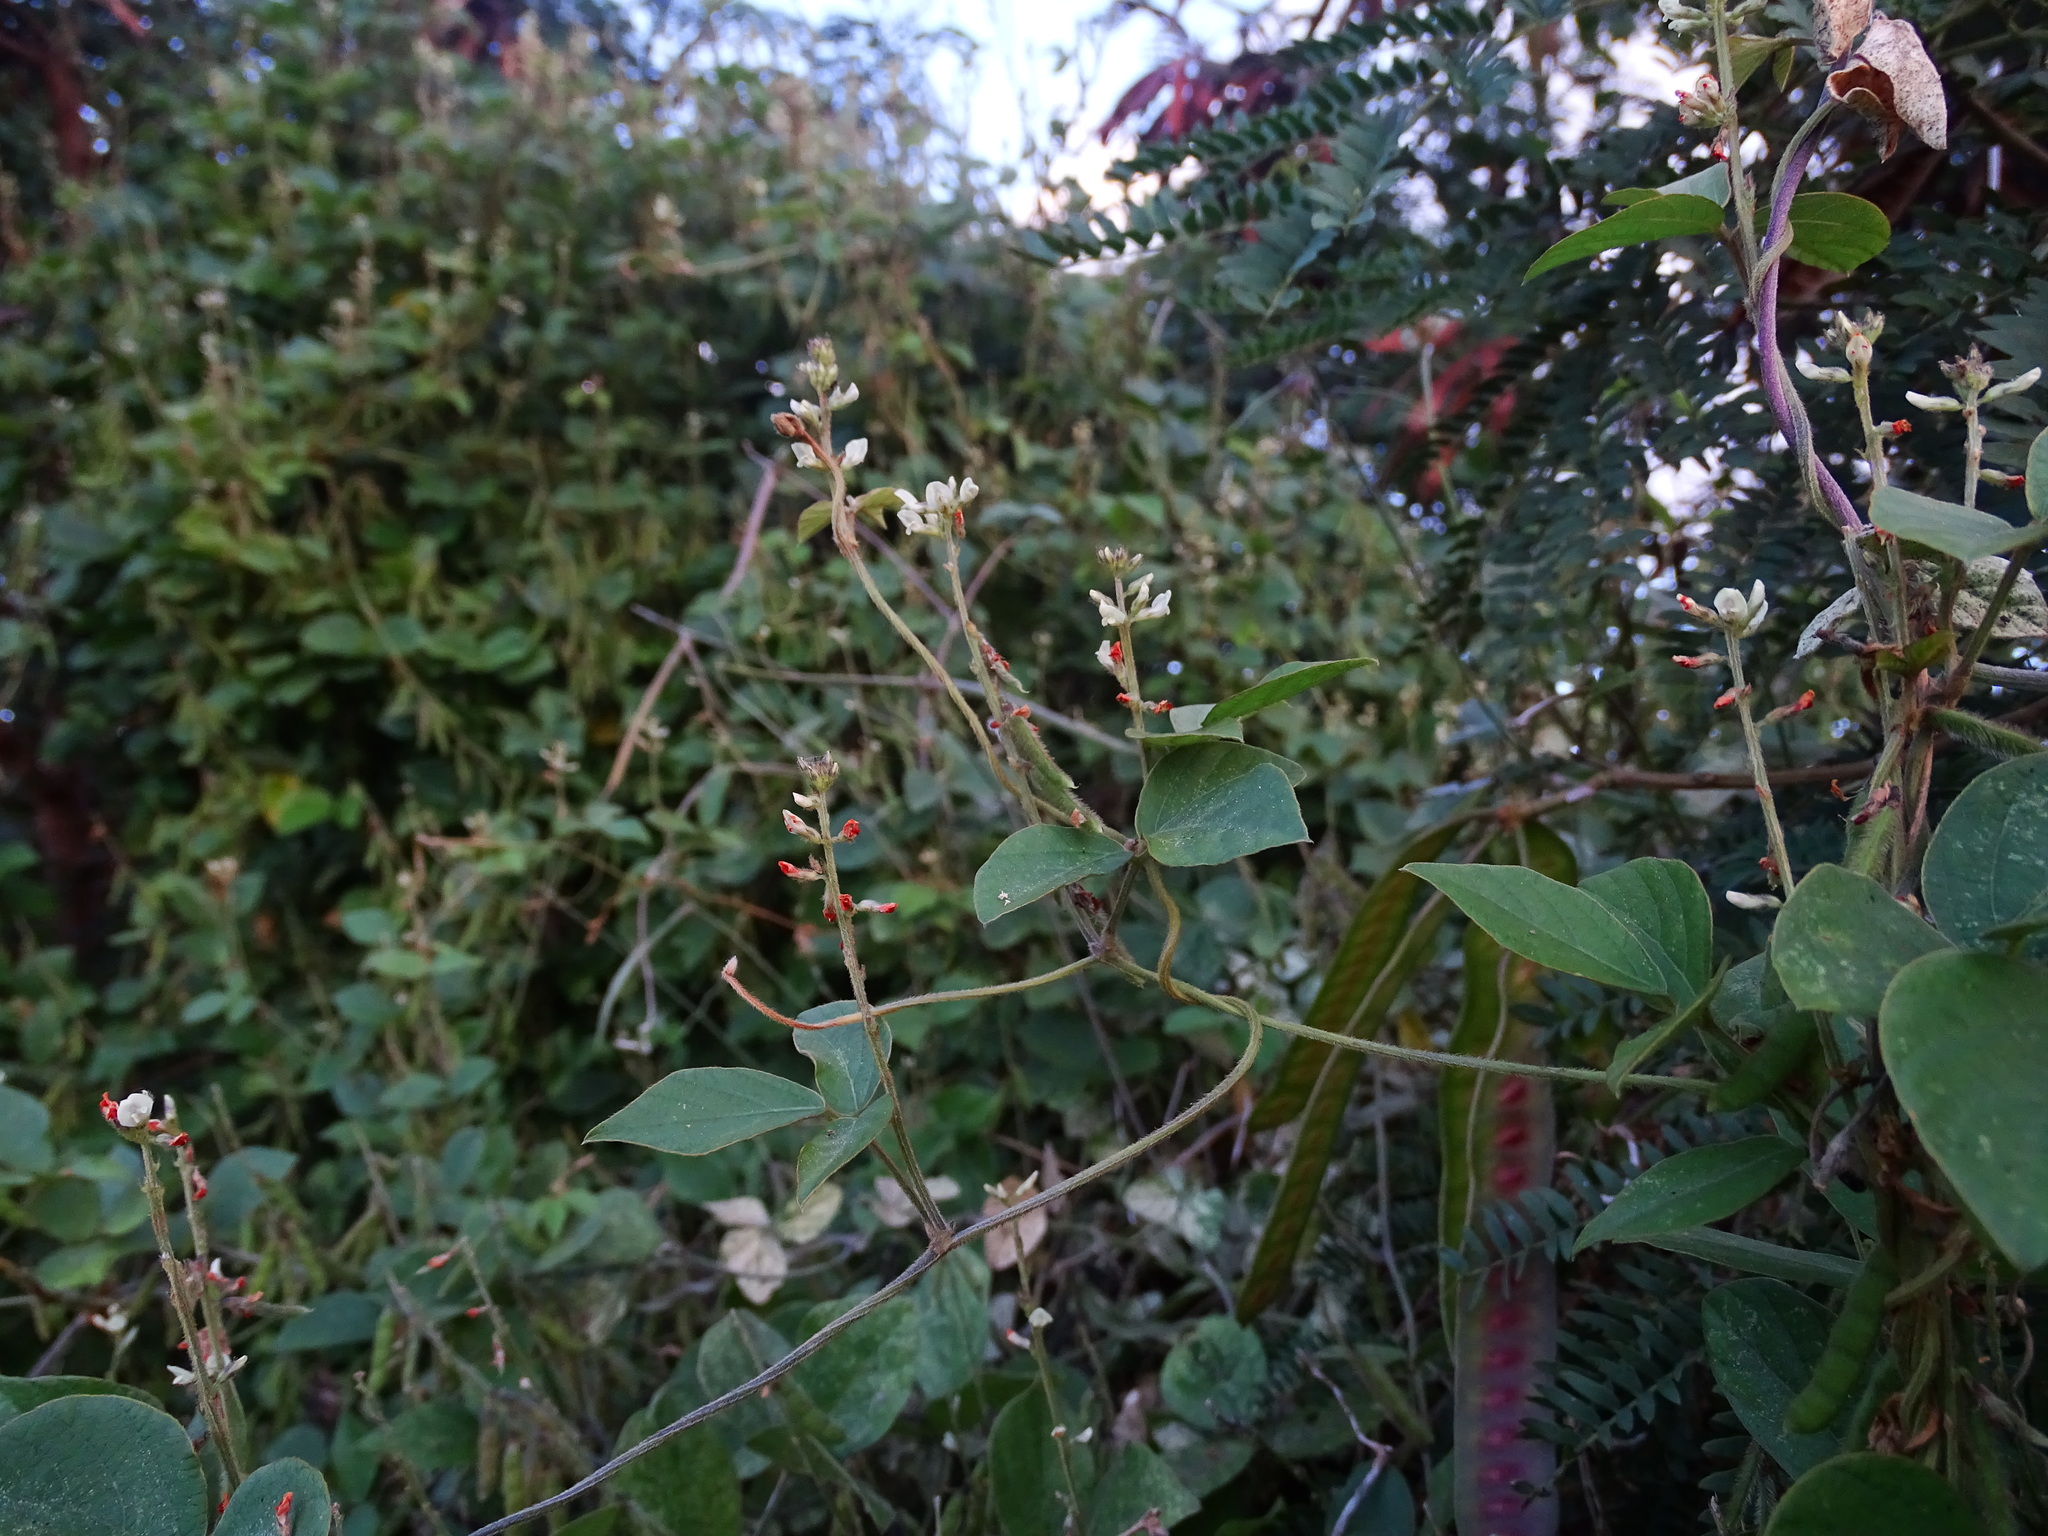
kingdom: Plantae
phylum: Tracheophyta
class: Magnoliopsida
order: Fabales
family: Fabaceae
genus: Neonotonia
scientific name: Neonotonia wightii
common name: Perennial soybean
